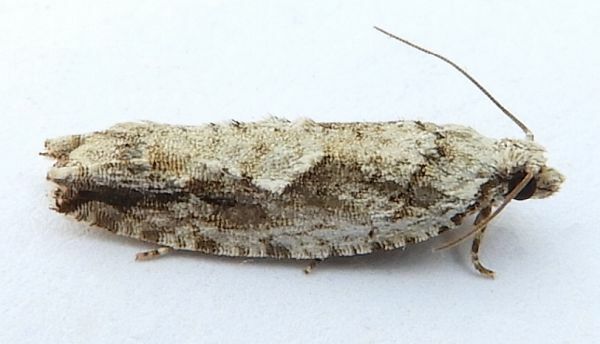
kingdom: Animalia
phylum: Arthropoda
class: Insecta
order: Lepidoptera
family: Tortricidae
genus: Gretchena
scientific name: Gretchena deludana
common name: Arrowhead moth
